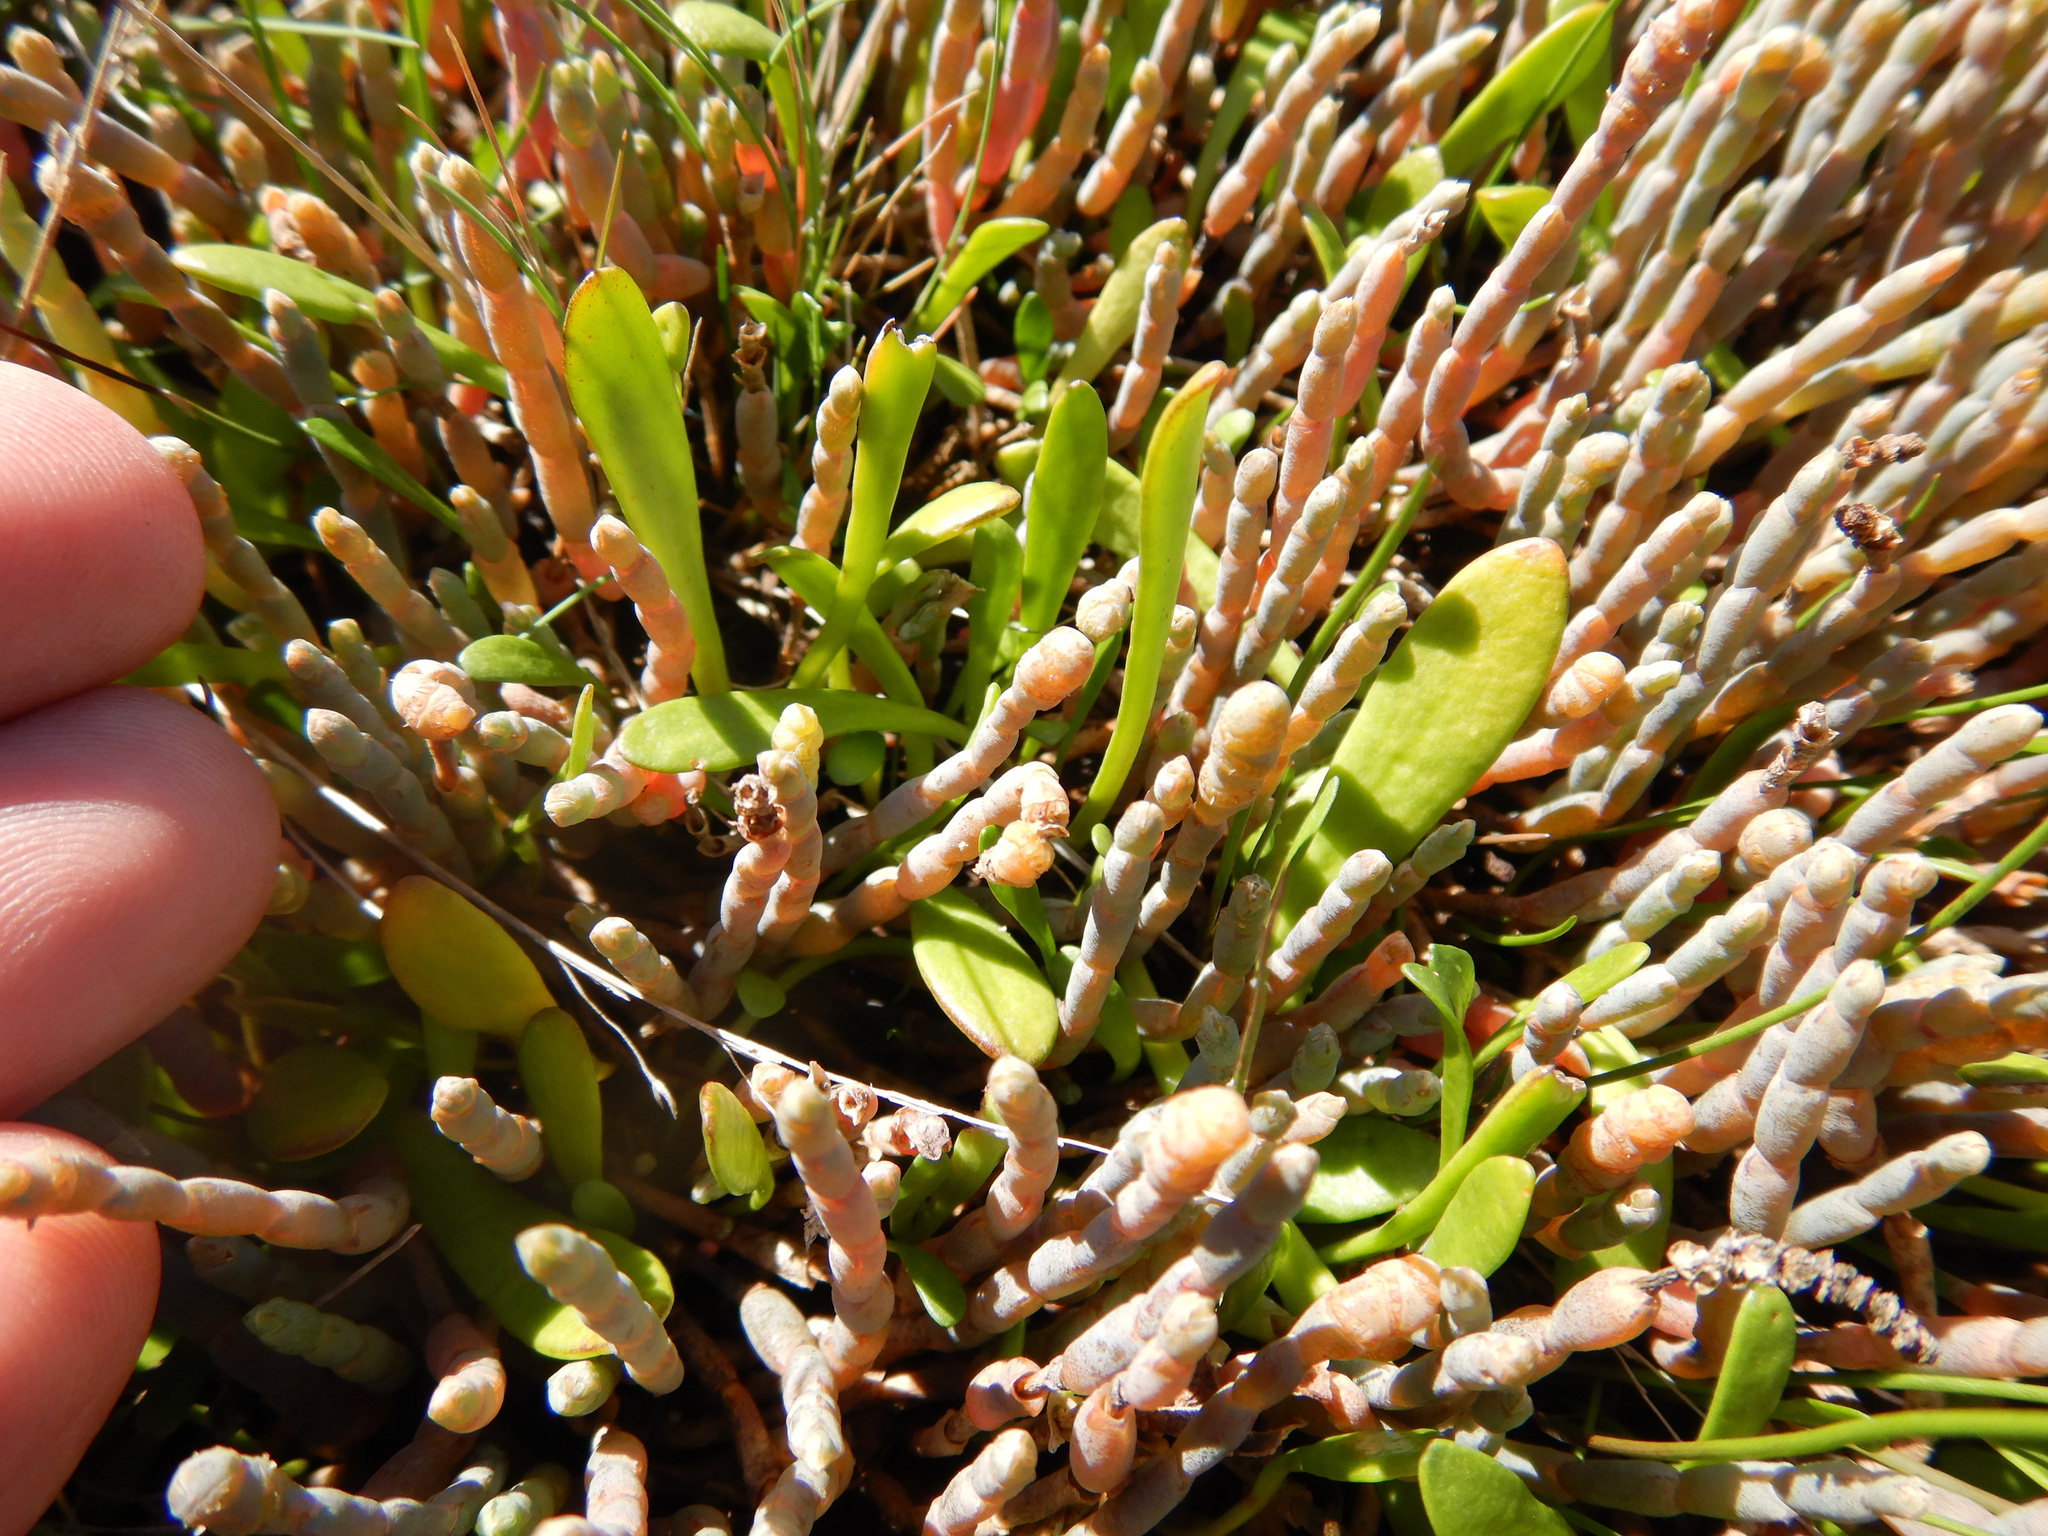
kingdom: Plantae
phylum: Tracheophyta
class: Magnoliopsida
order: Asterales
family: Goodeniaceae
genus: Goodenia
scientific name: Goodenia radicans
